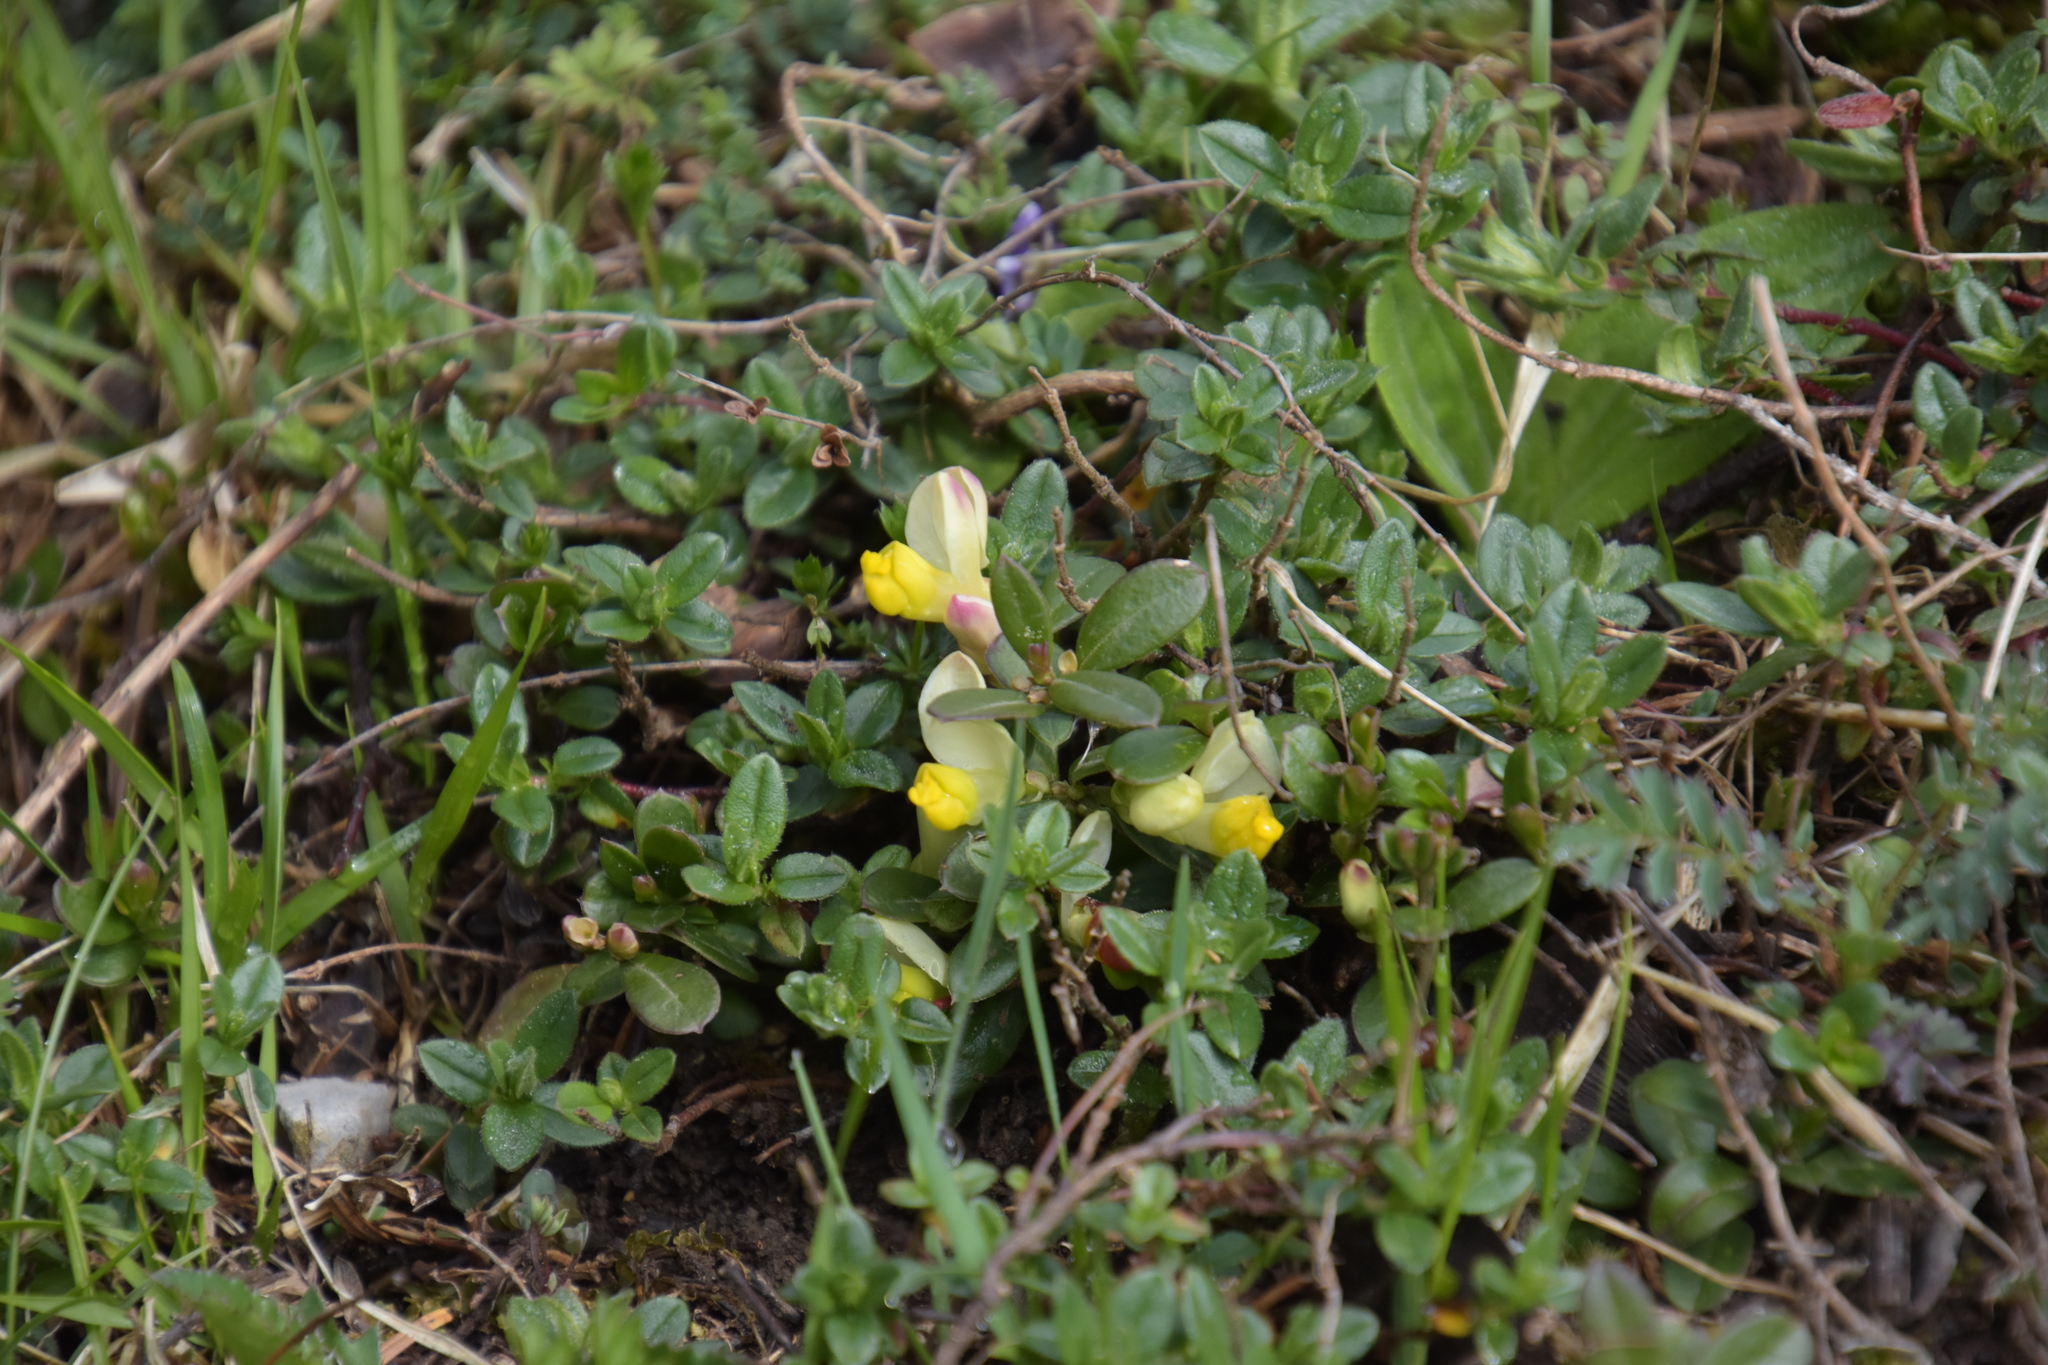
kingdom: Plantae
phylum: Tracheophyta
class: Magnoliopsida
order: Fabales
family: Polygalaceae
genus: Polygaloides
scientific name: Polygaloides chamaebuxus
